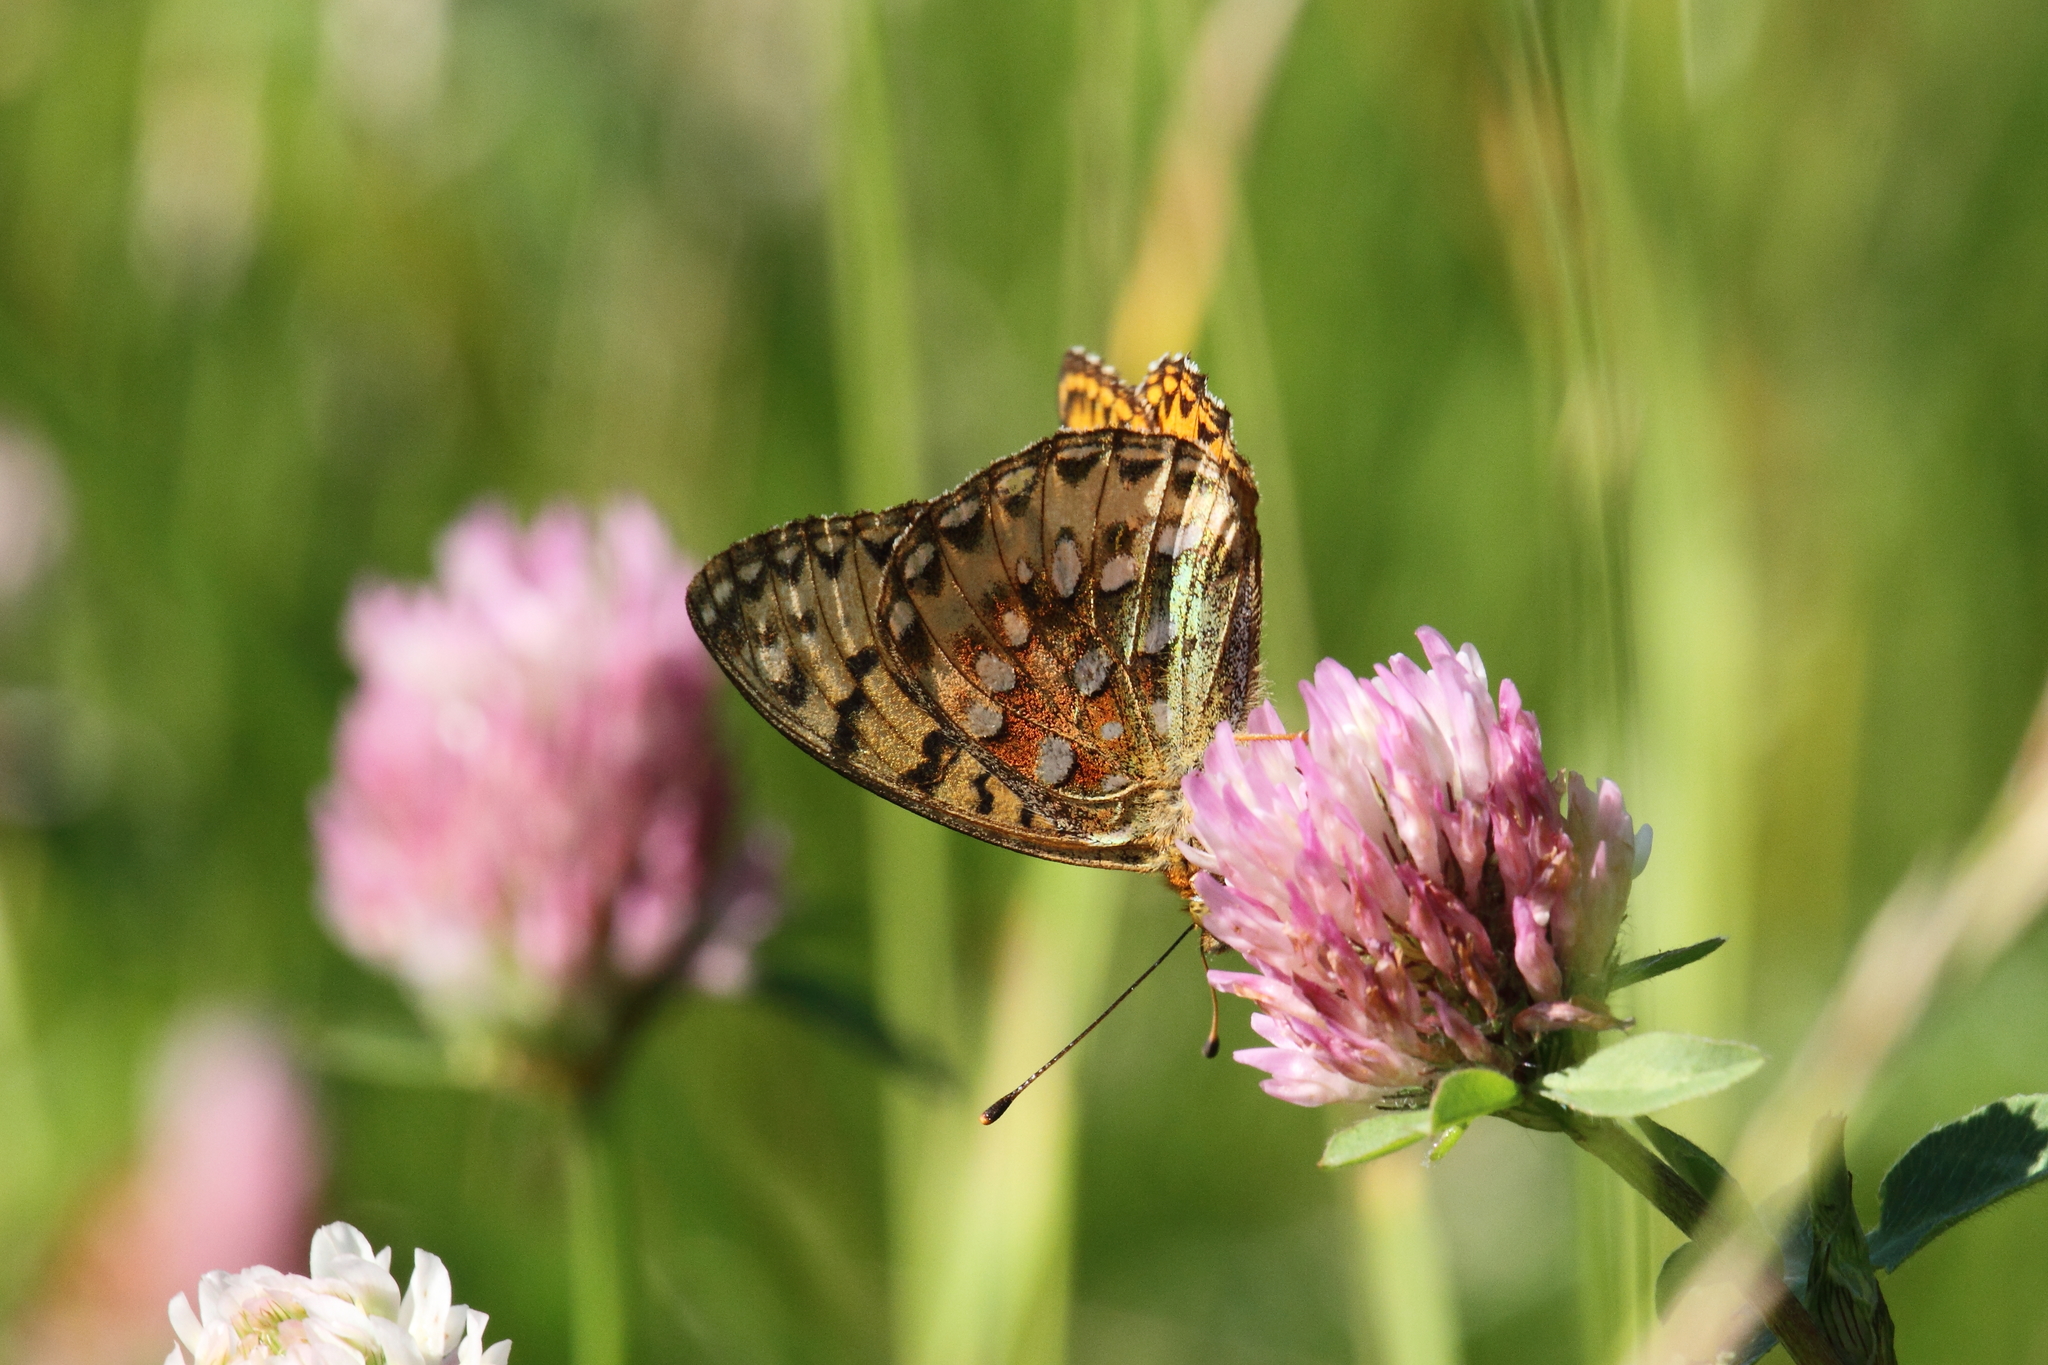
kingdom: Animalia
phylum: Arthropoda
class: Insecta
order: Lepidoptera
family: Nymphalidae
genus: Speyeria
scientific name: Speyeria aglaja
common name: Dark green fritillary
